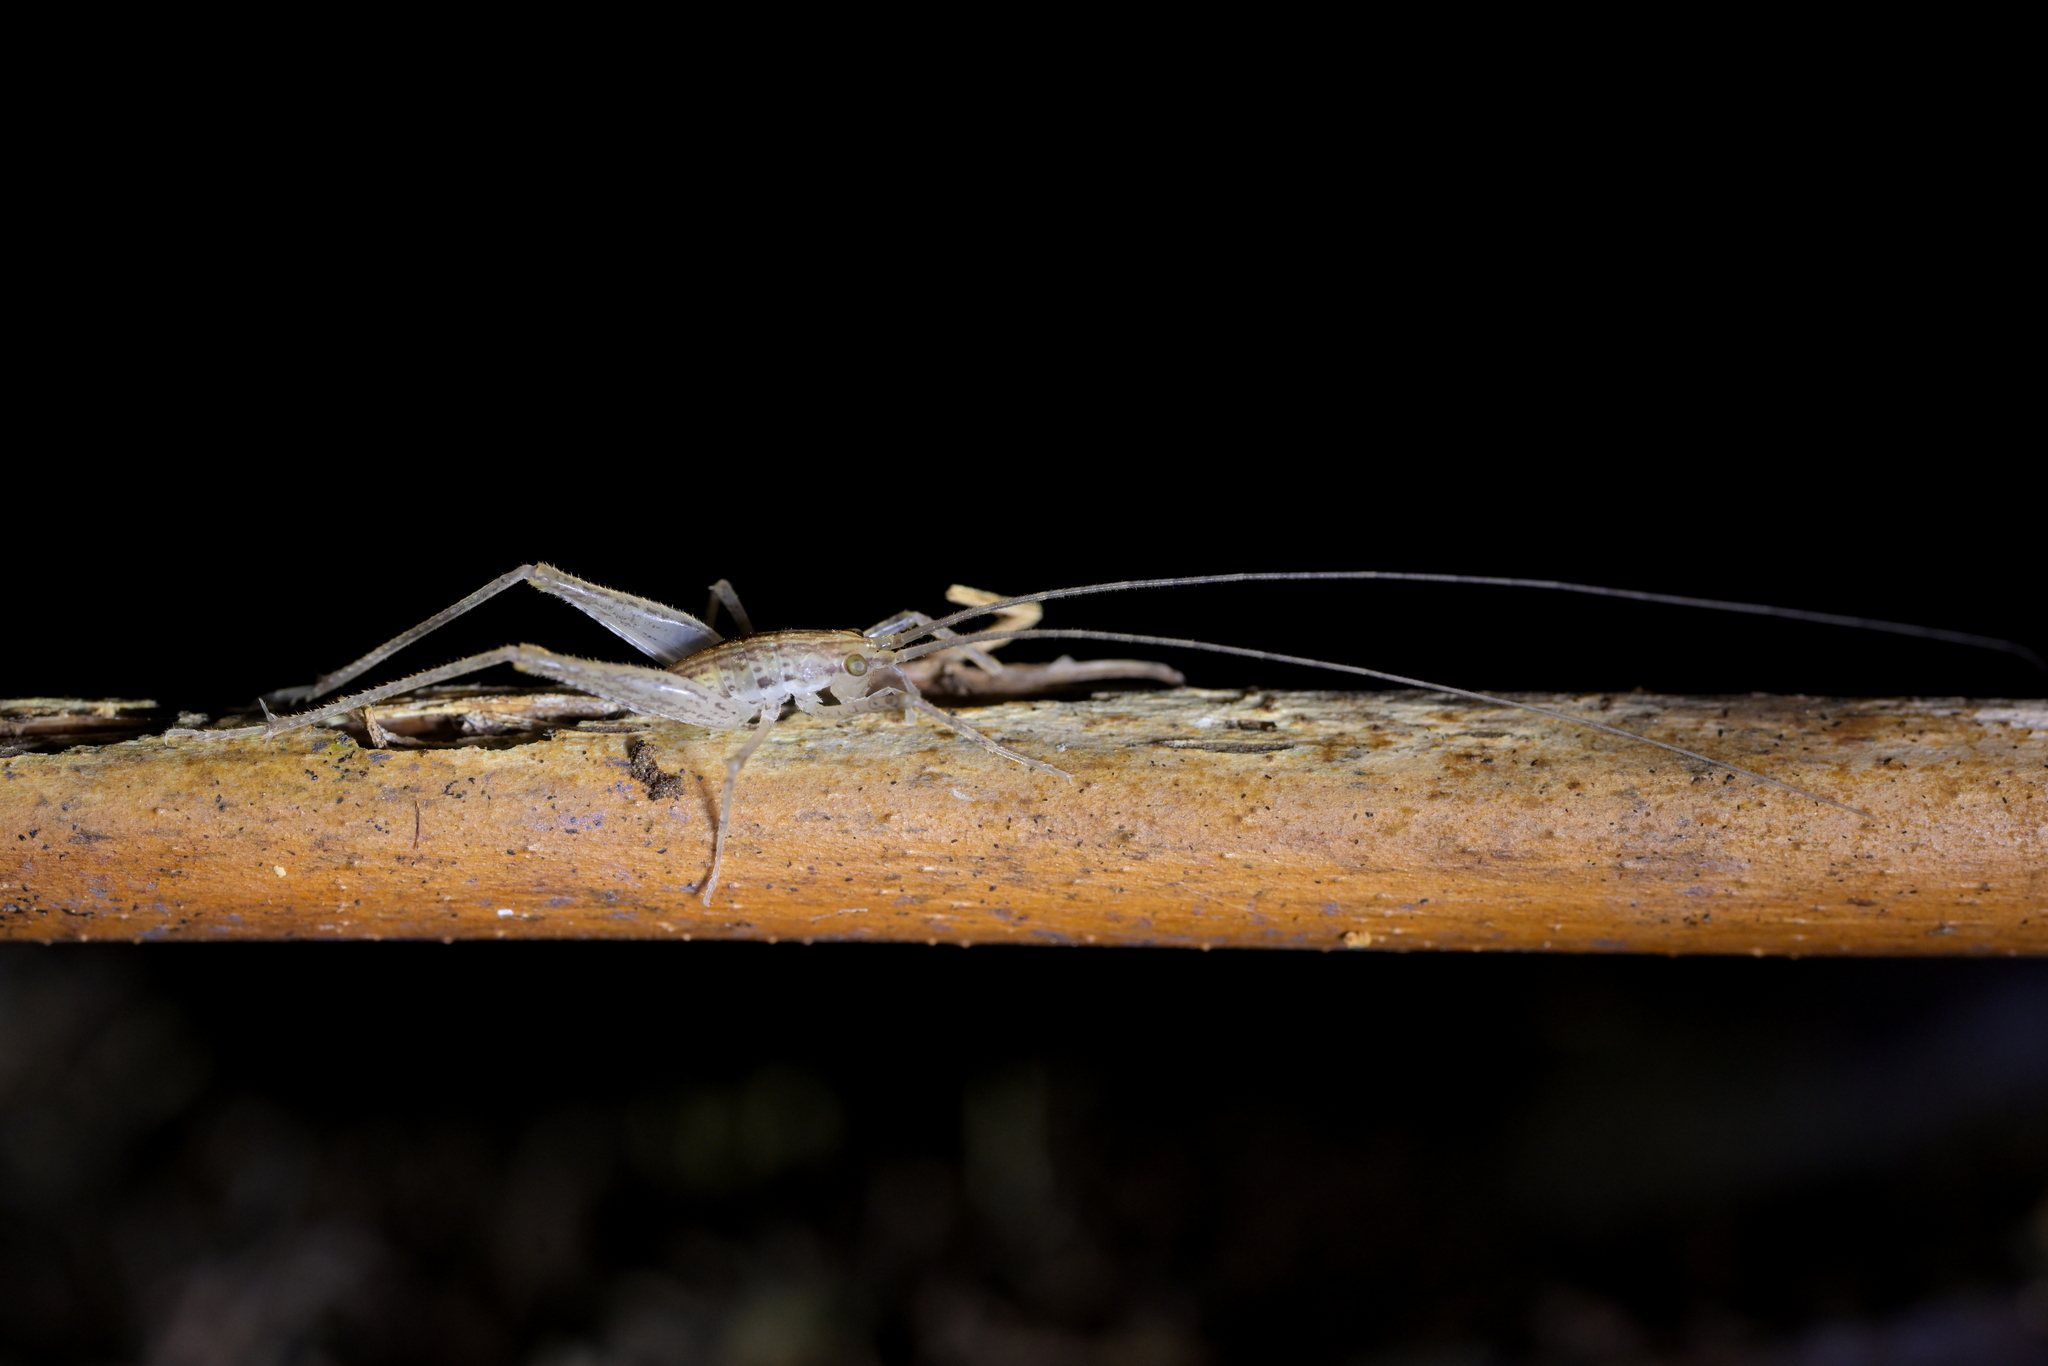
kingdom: Animalia
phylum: Arthropoda
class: Insecta
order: Orthoptera
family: Rhaphidophoridae
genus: Talitropsis
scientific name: Talitropsis poduroides
